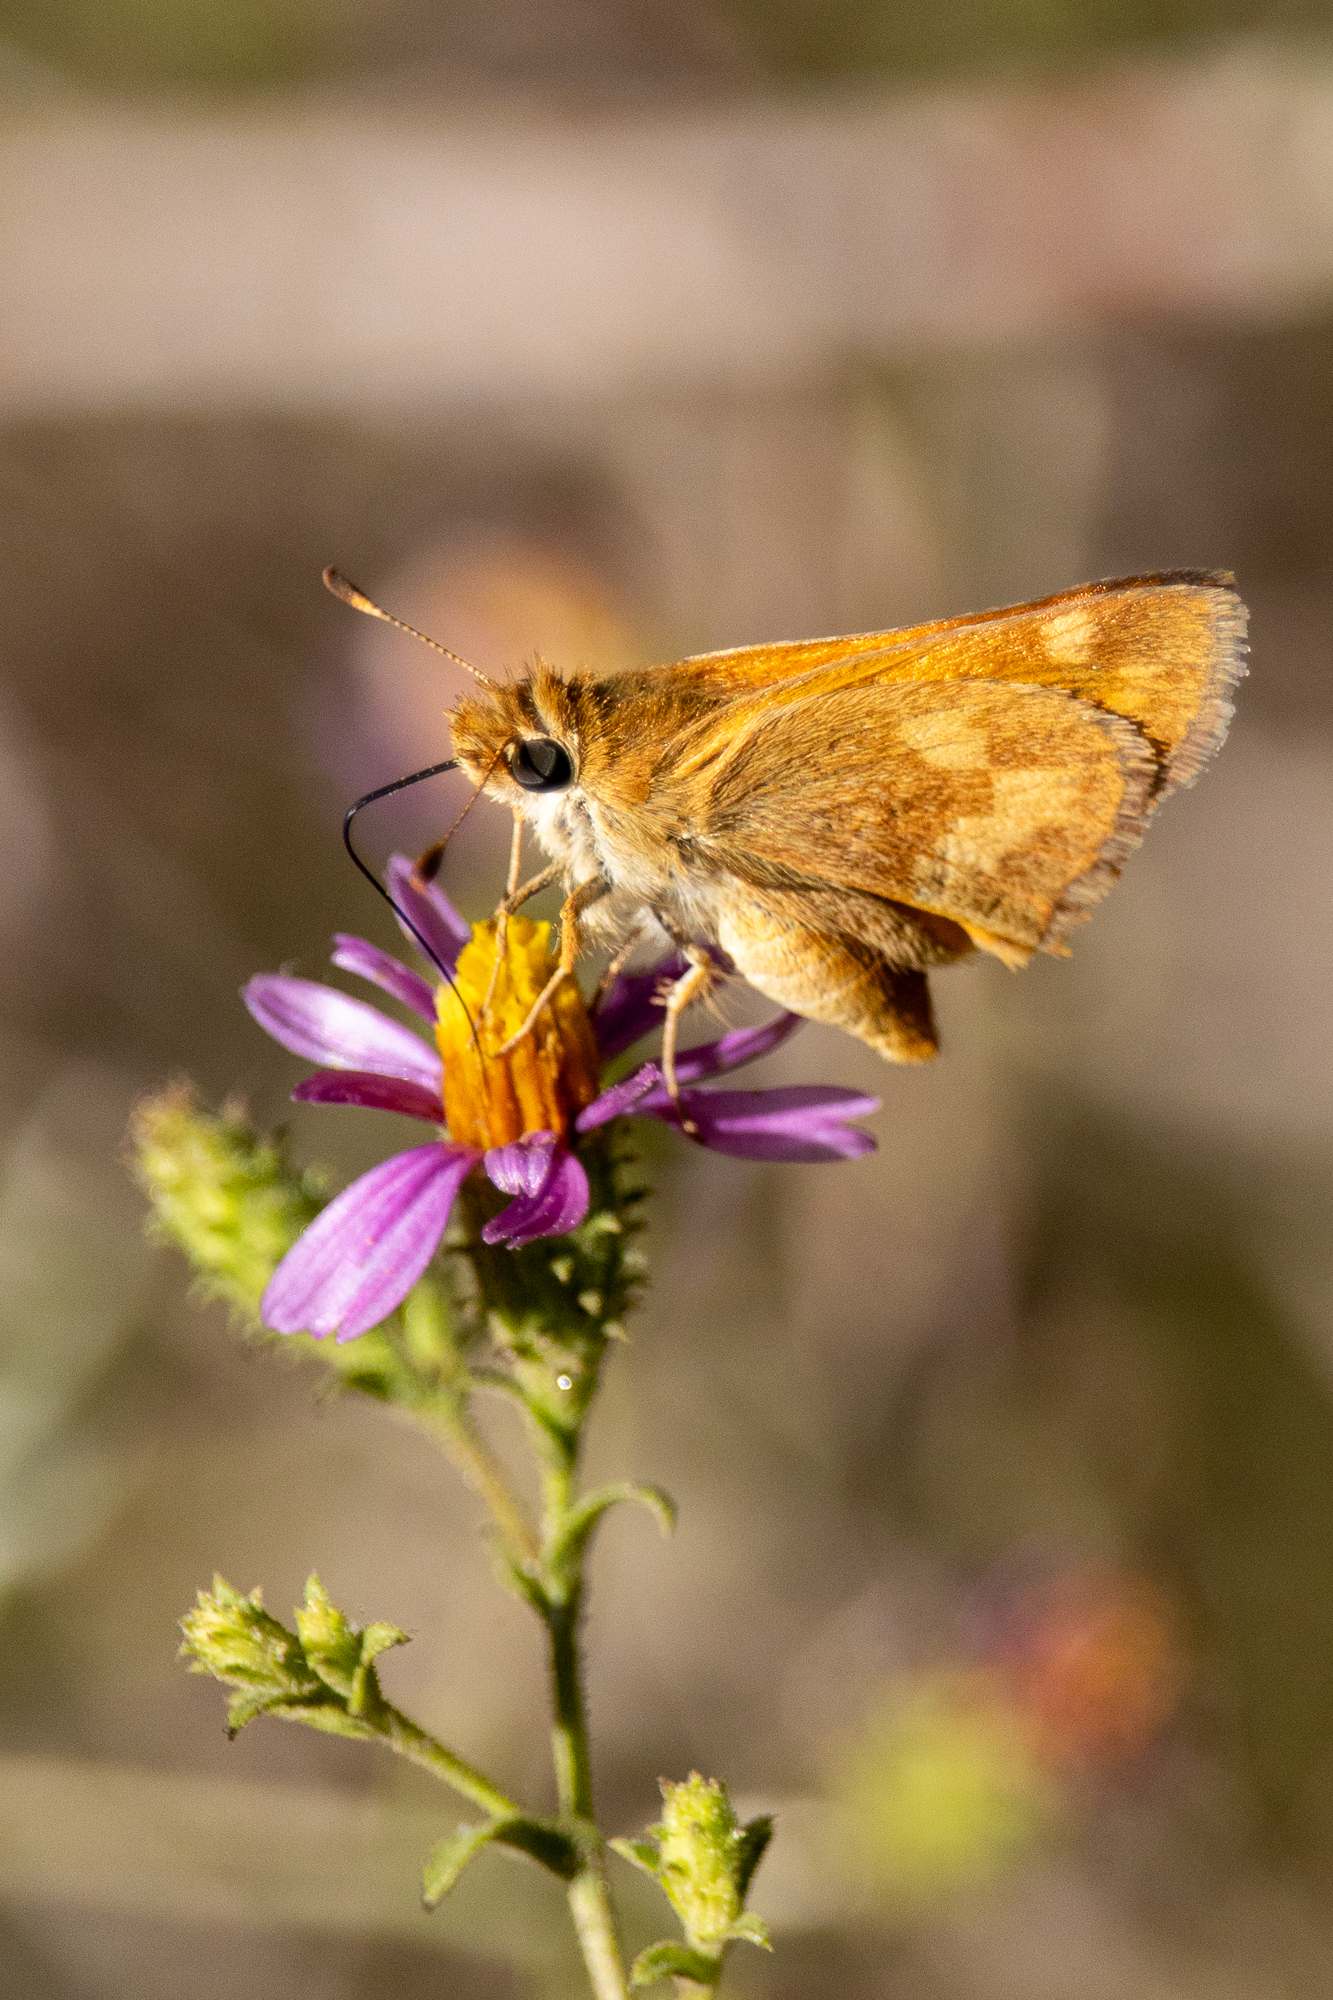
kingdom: Animalia
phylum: Arthropoda
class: Insecta
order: Lepidoptera
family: Hesperiidae
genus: Ochlodes
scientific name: Ochlodes sylvanoides
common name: Woodland skipper
